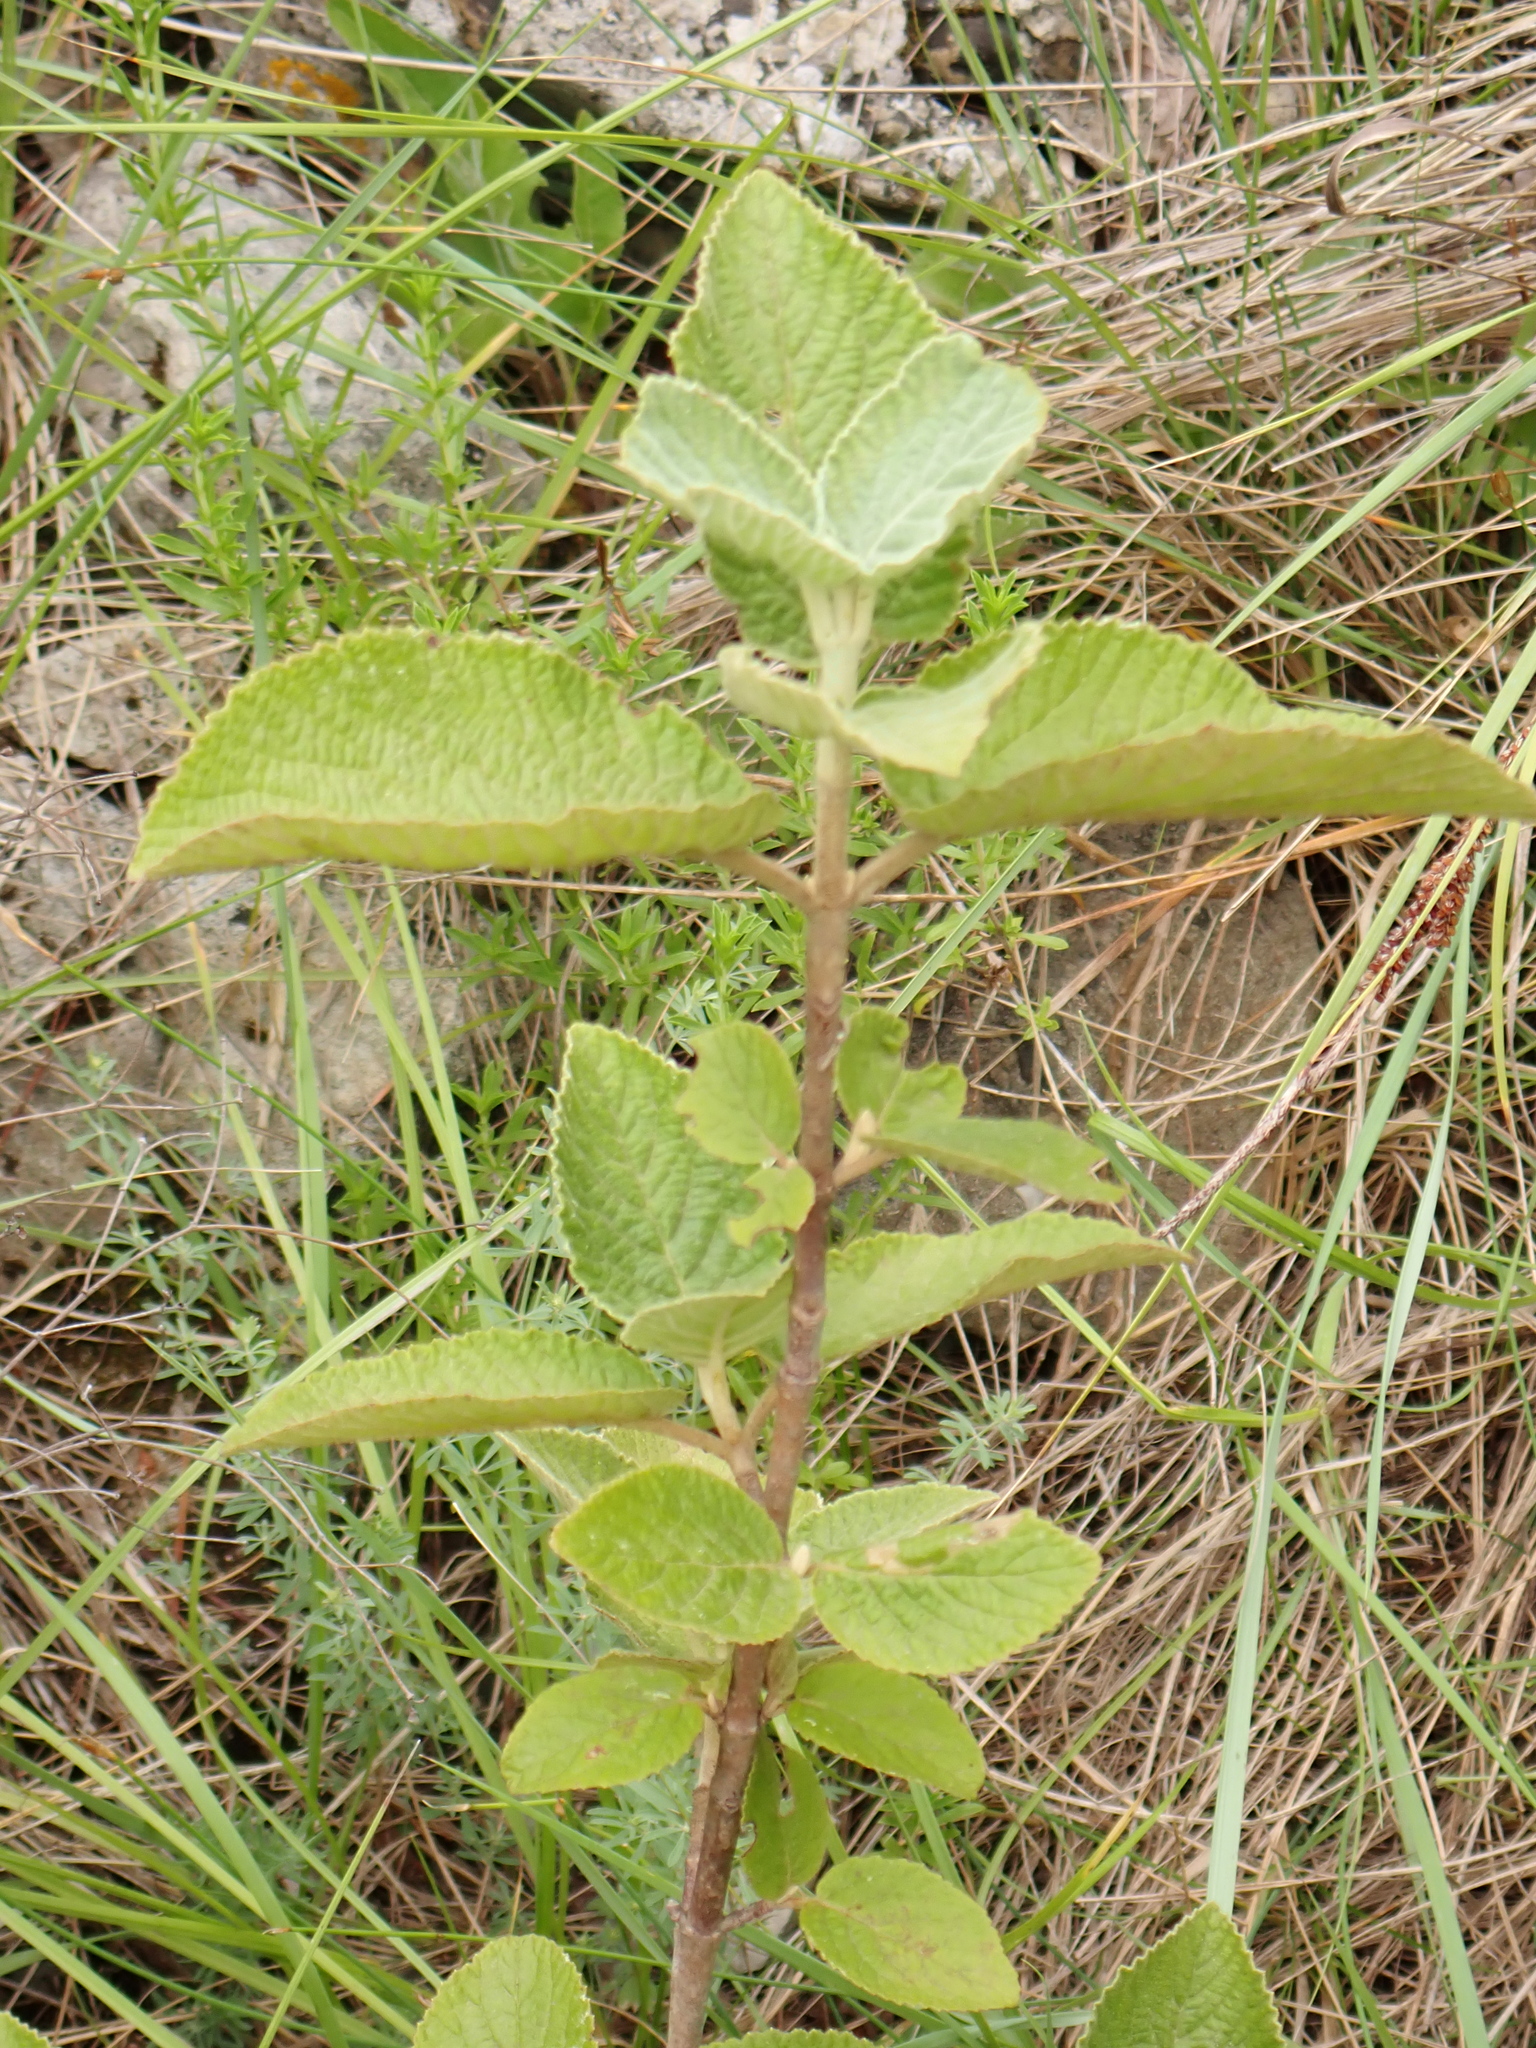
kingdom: Plantae
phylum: Tracheophyta
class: Magnoliopsida
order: Dipsacales
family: Viburnaceae
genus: Viburnum
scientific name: Viburnum lantana
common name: Wayfaring tree
